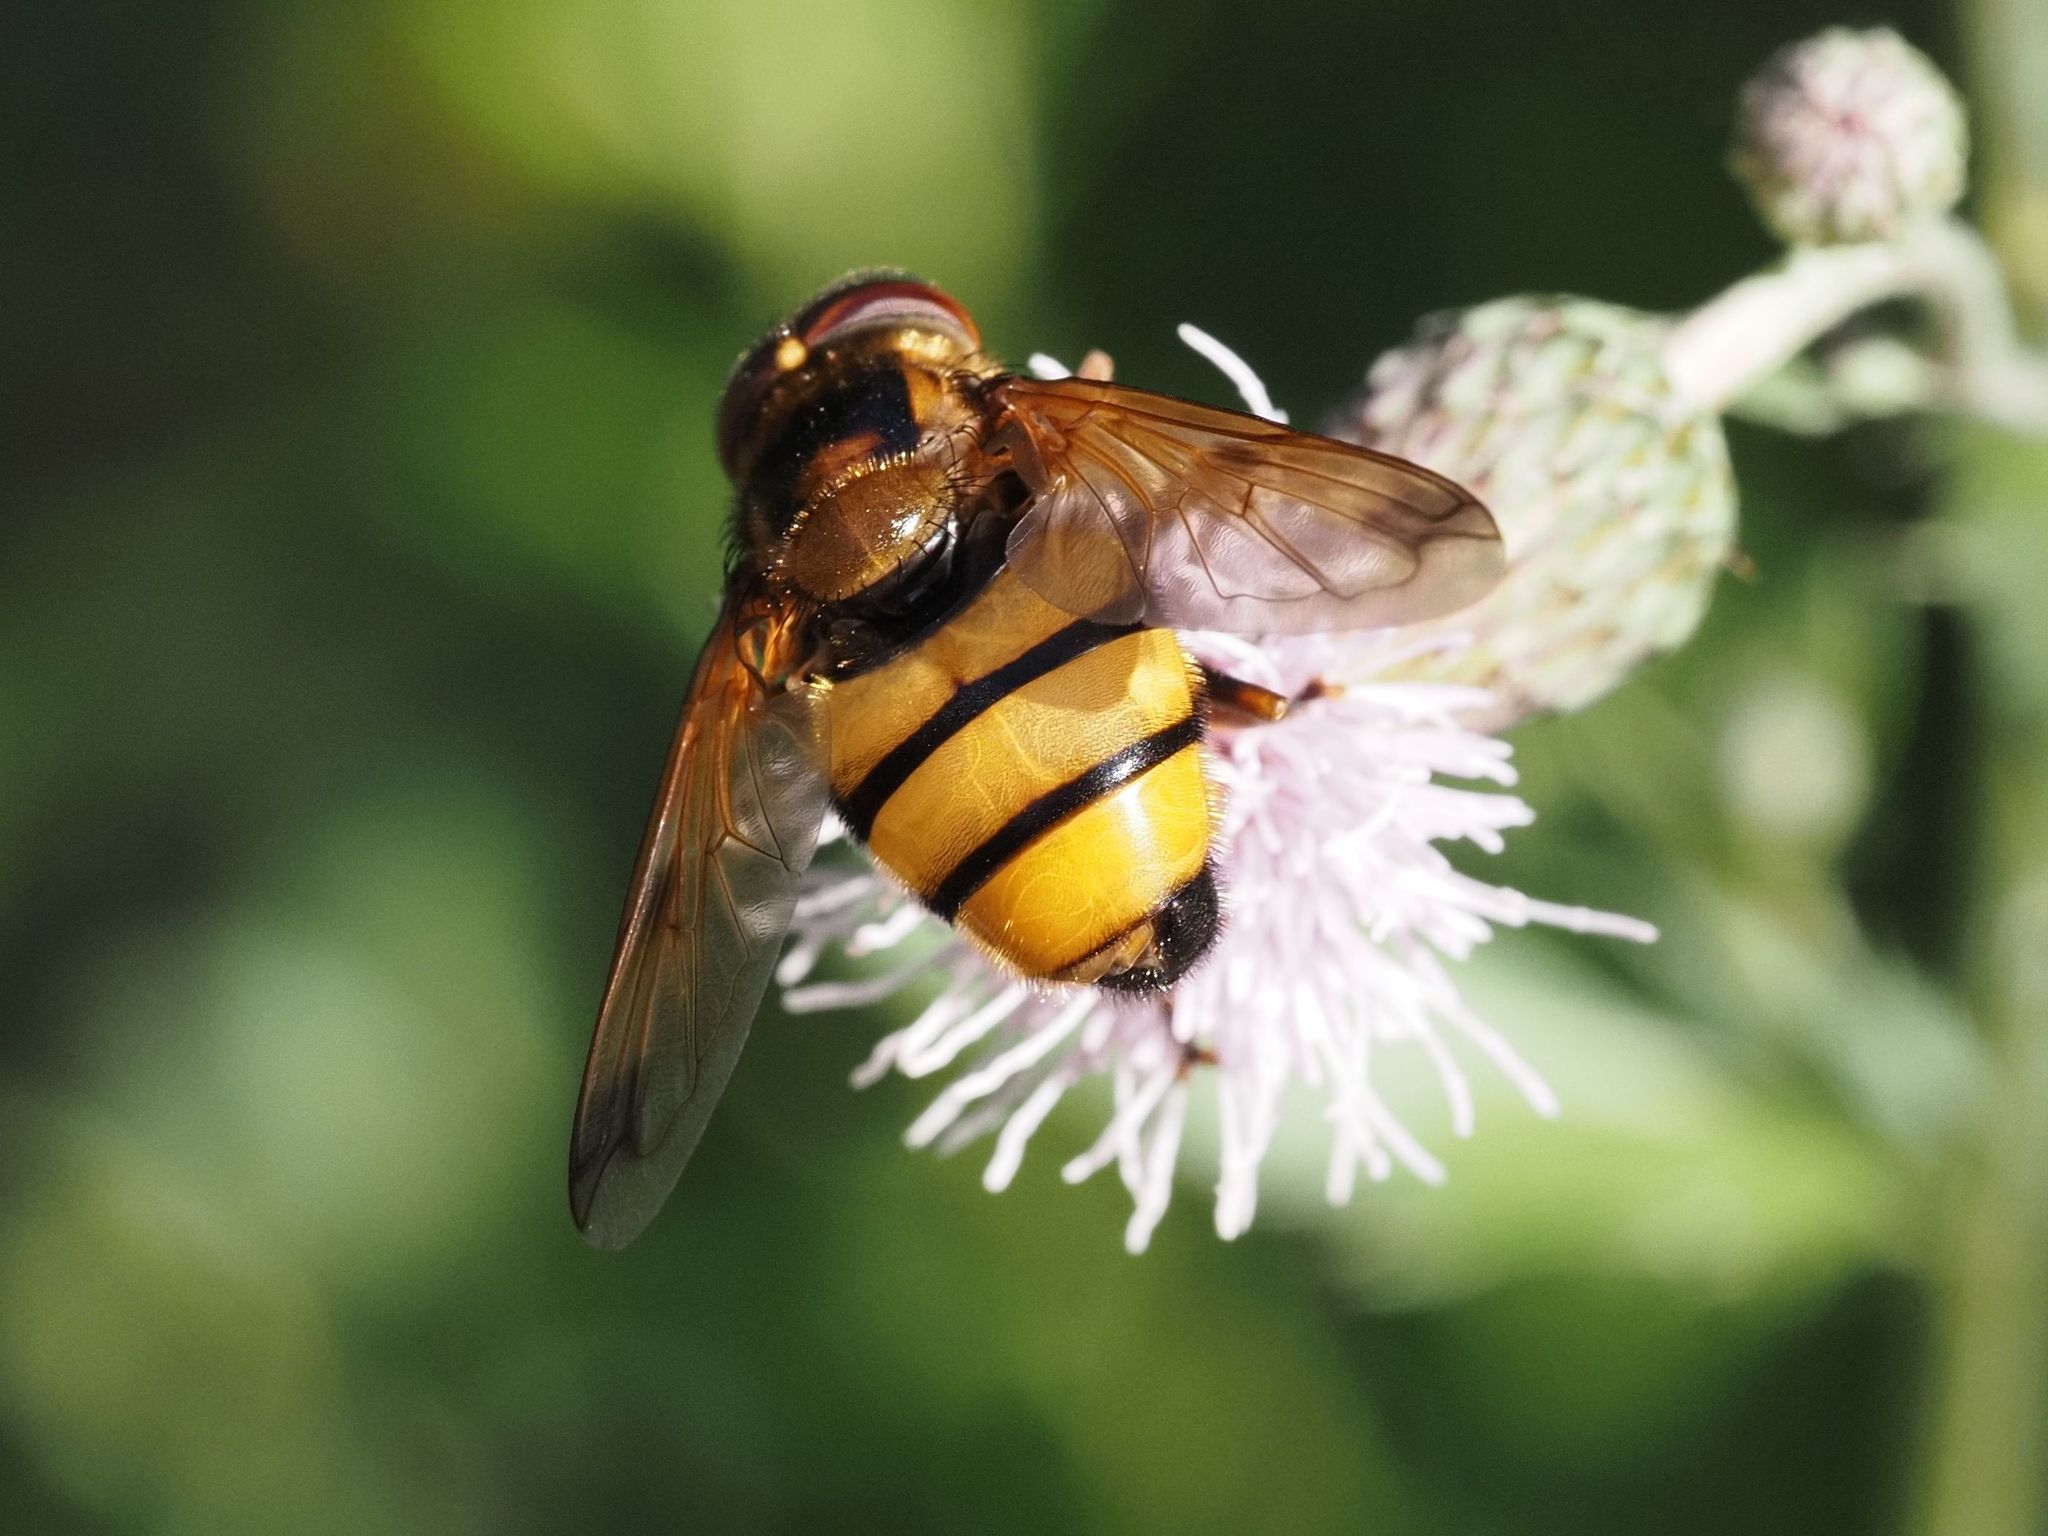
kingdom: Animalia
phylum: Arthropoda
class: Insecta
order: Diptera
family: Syrphidae
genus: Volucella
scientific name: Volucella inanis
